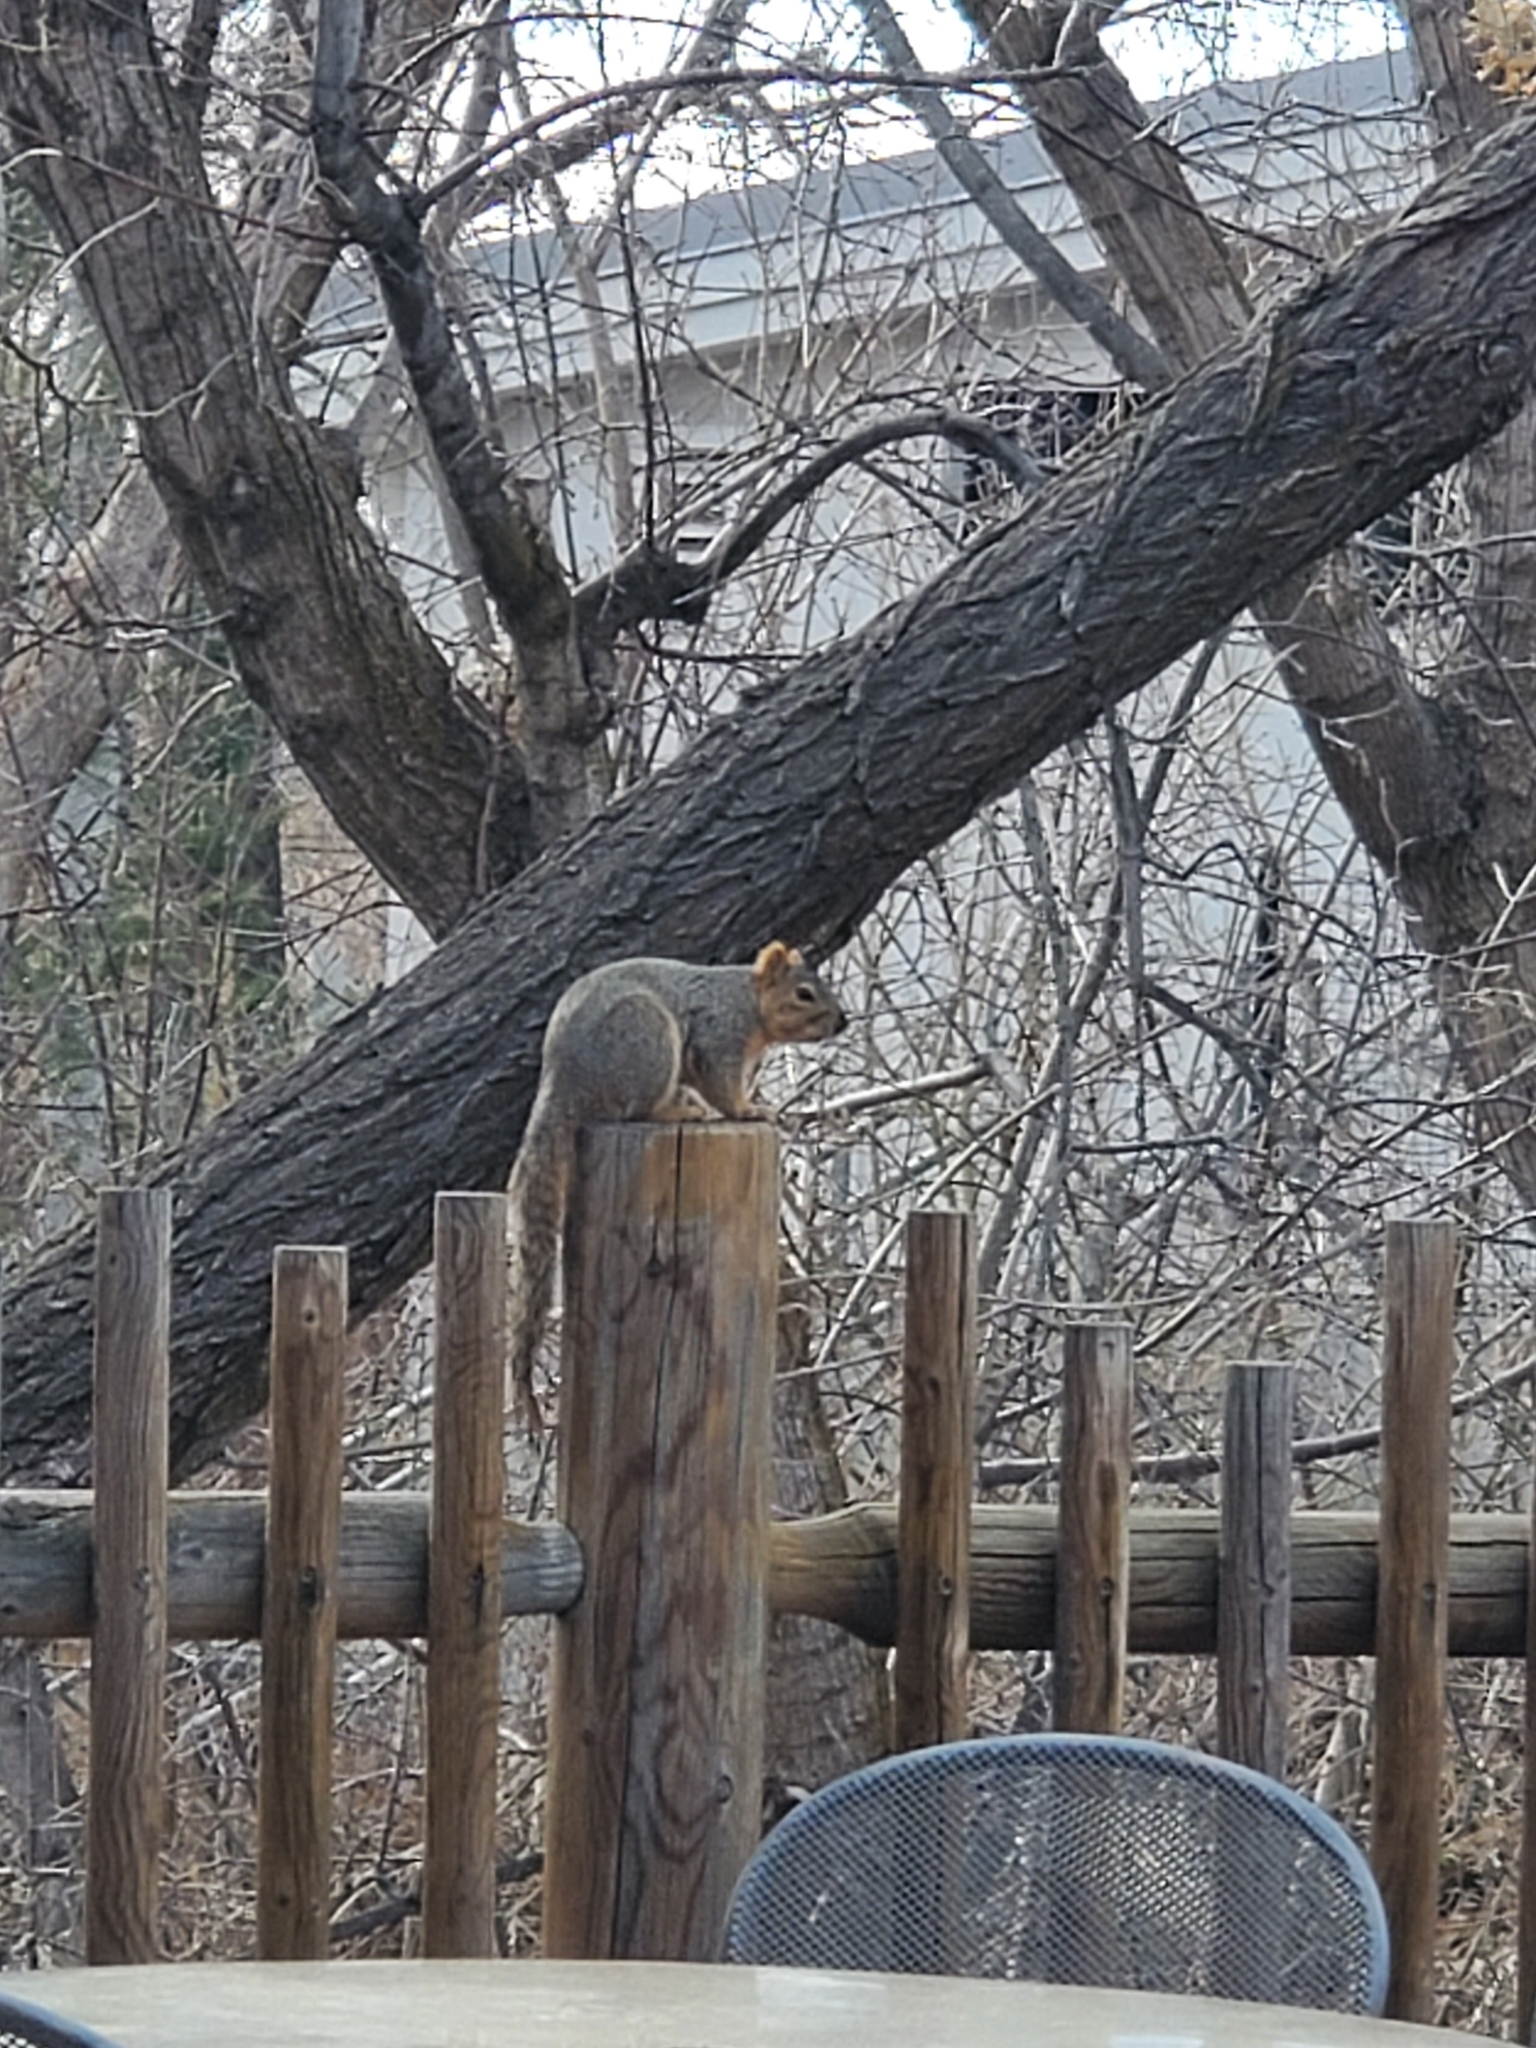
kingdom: Animalia
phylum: Chordata
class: Mammalia
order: Rodentia
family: Sciuridae
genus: Sciurus
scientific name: Sciurus niger
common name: Fox squirrel
